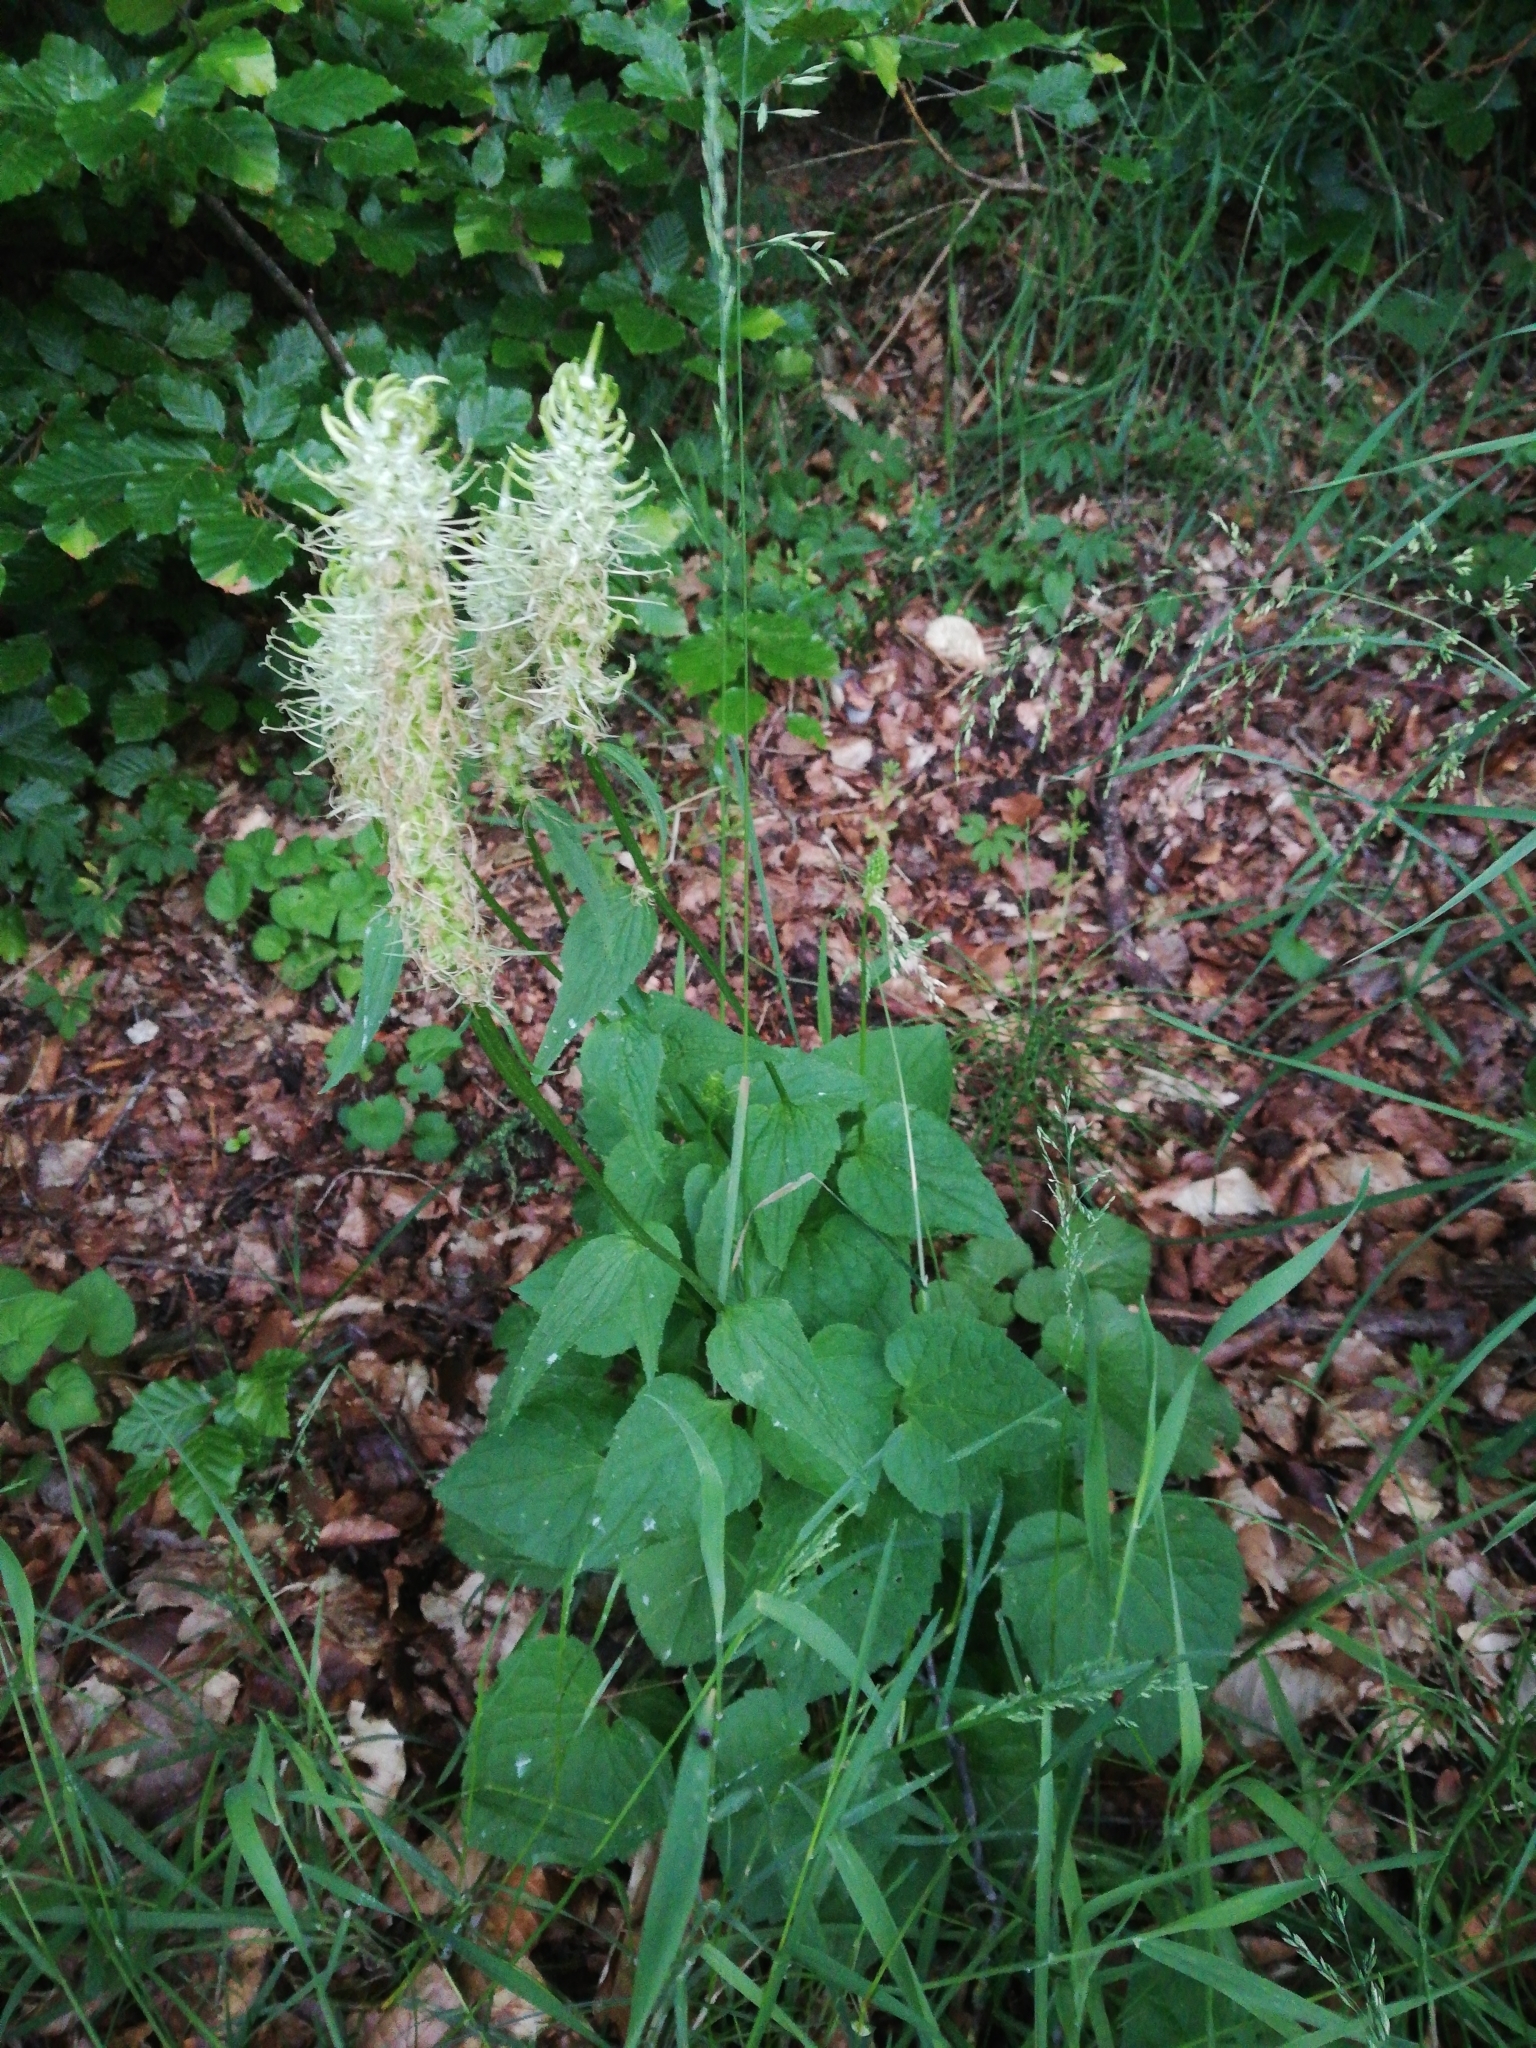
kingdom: Plantae
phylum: Tracheophyta
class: Magnoliopsida
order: Asterales
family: Campanulaceae
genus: Phyteuma
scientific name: Phyteuma spicatum
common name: Spiked rampion
